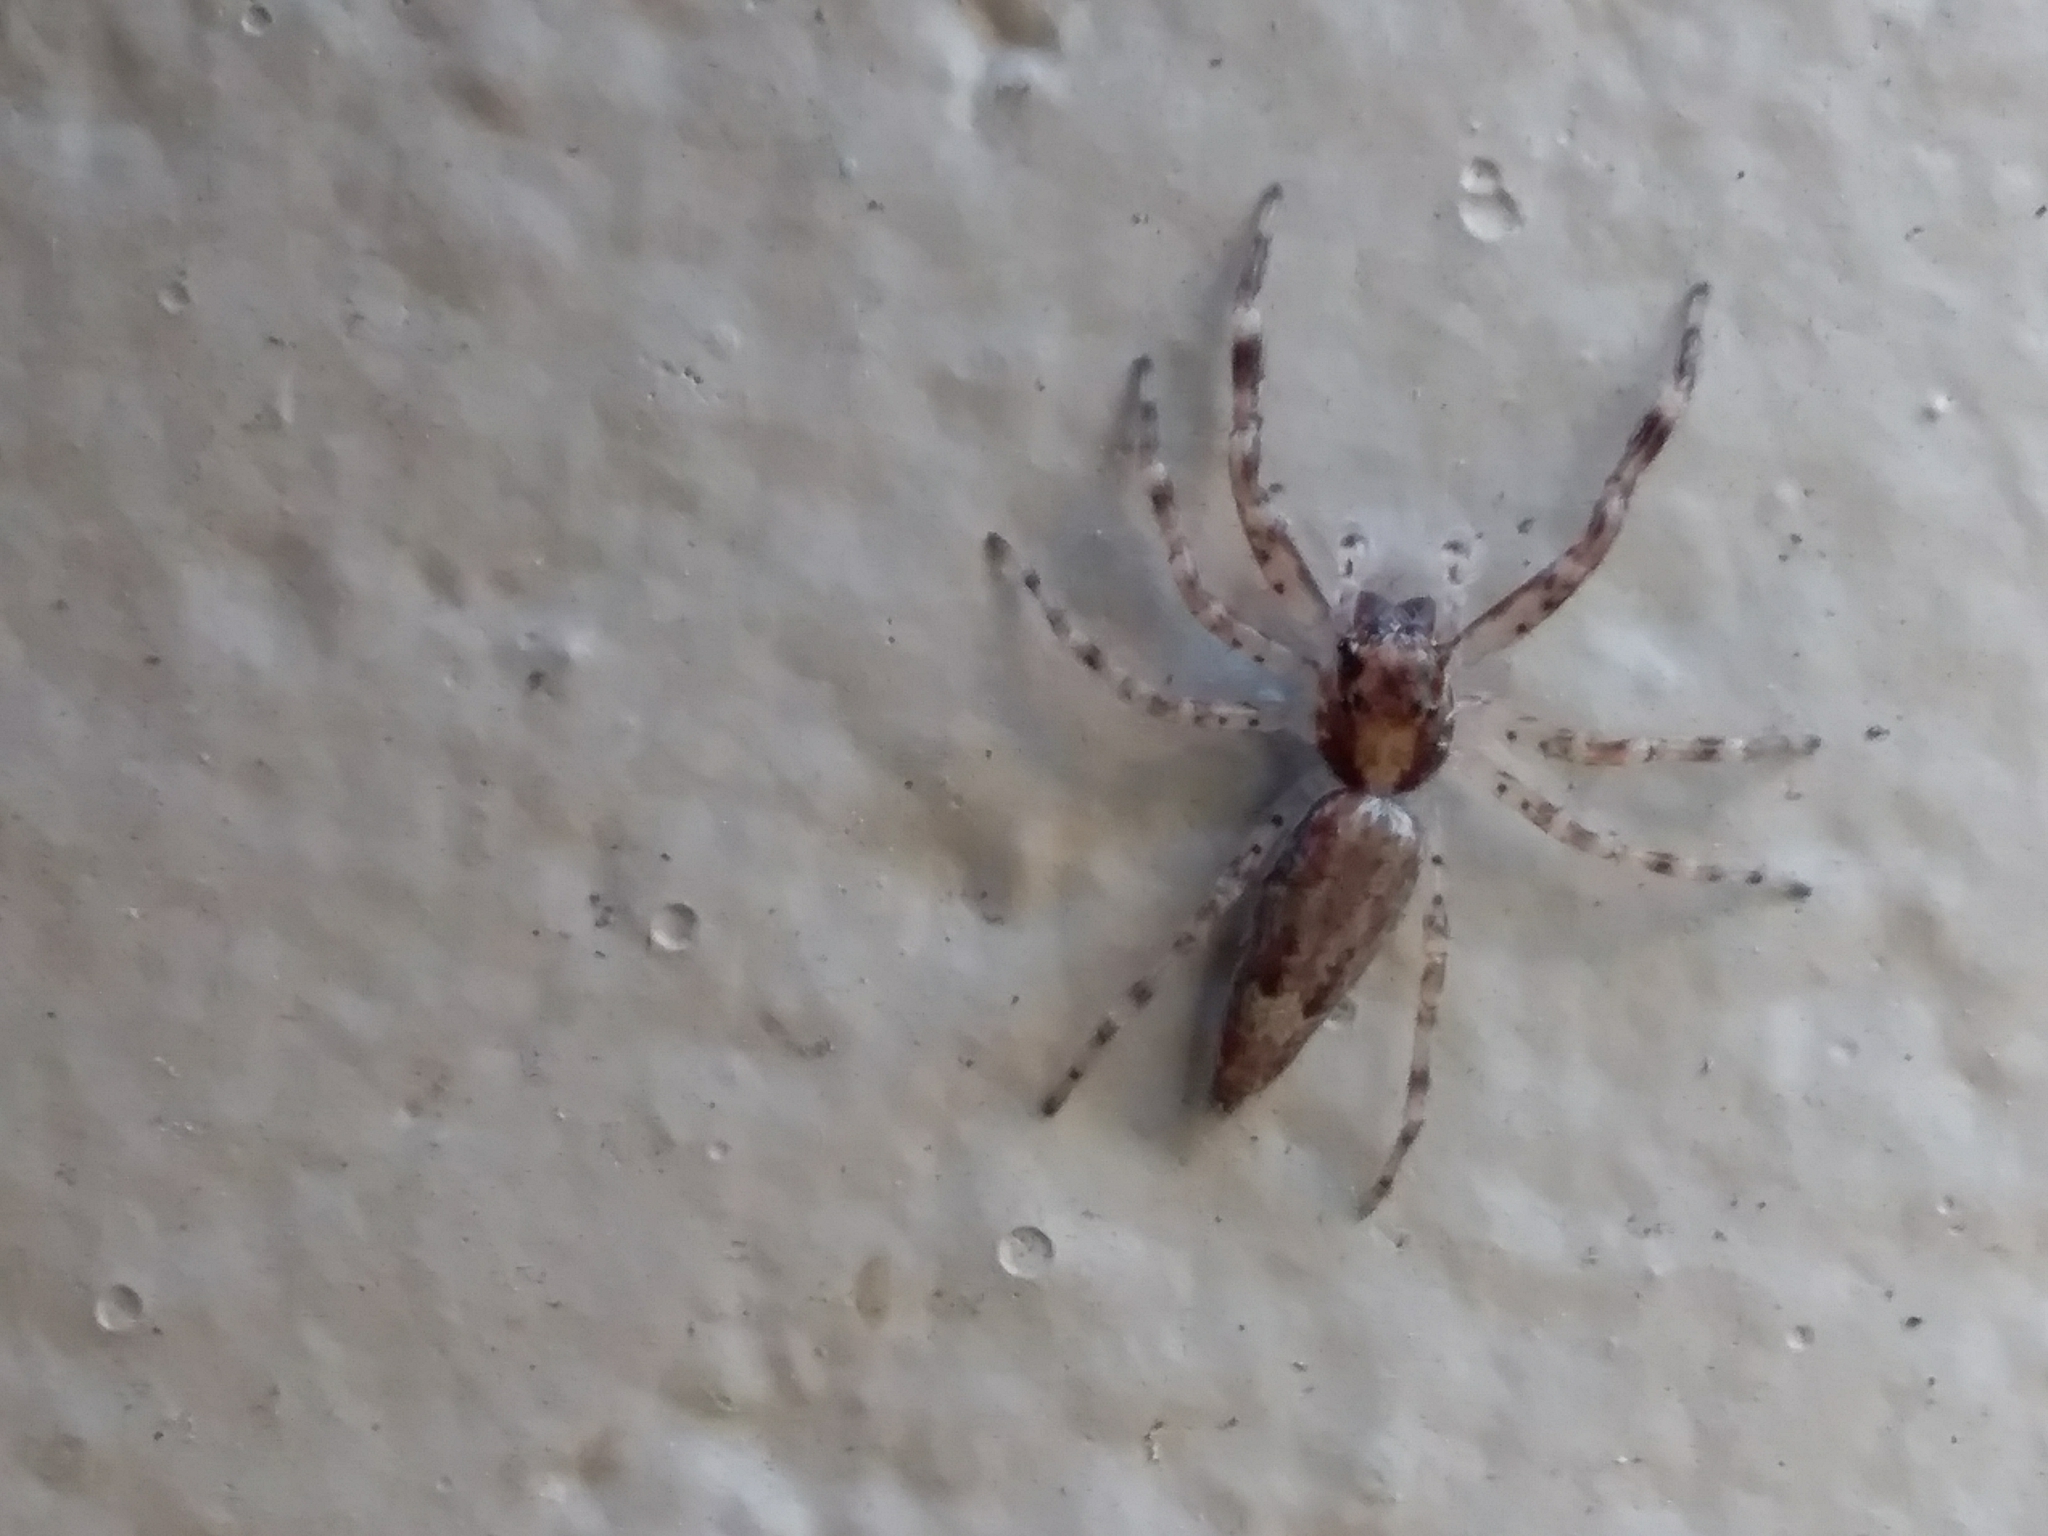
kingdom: Animalia
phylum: Arthropoda
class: Arachnida
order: Araneae
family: Salticidae
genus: Helpis
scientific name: Helpis minitabunda
